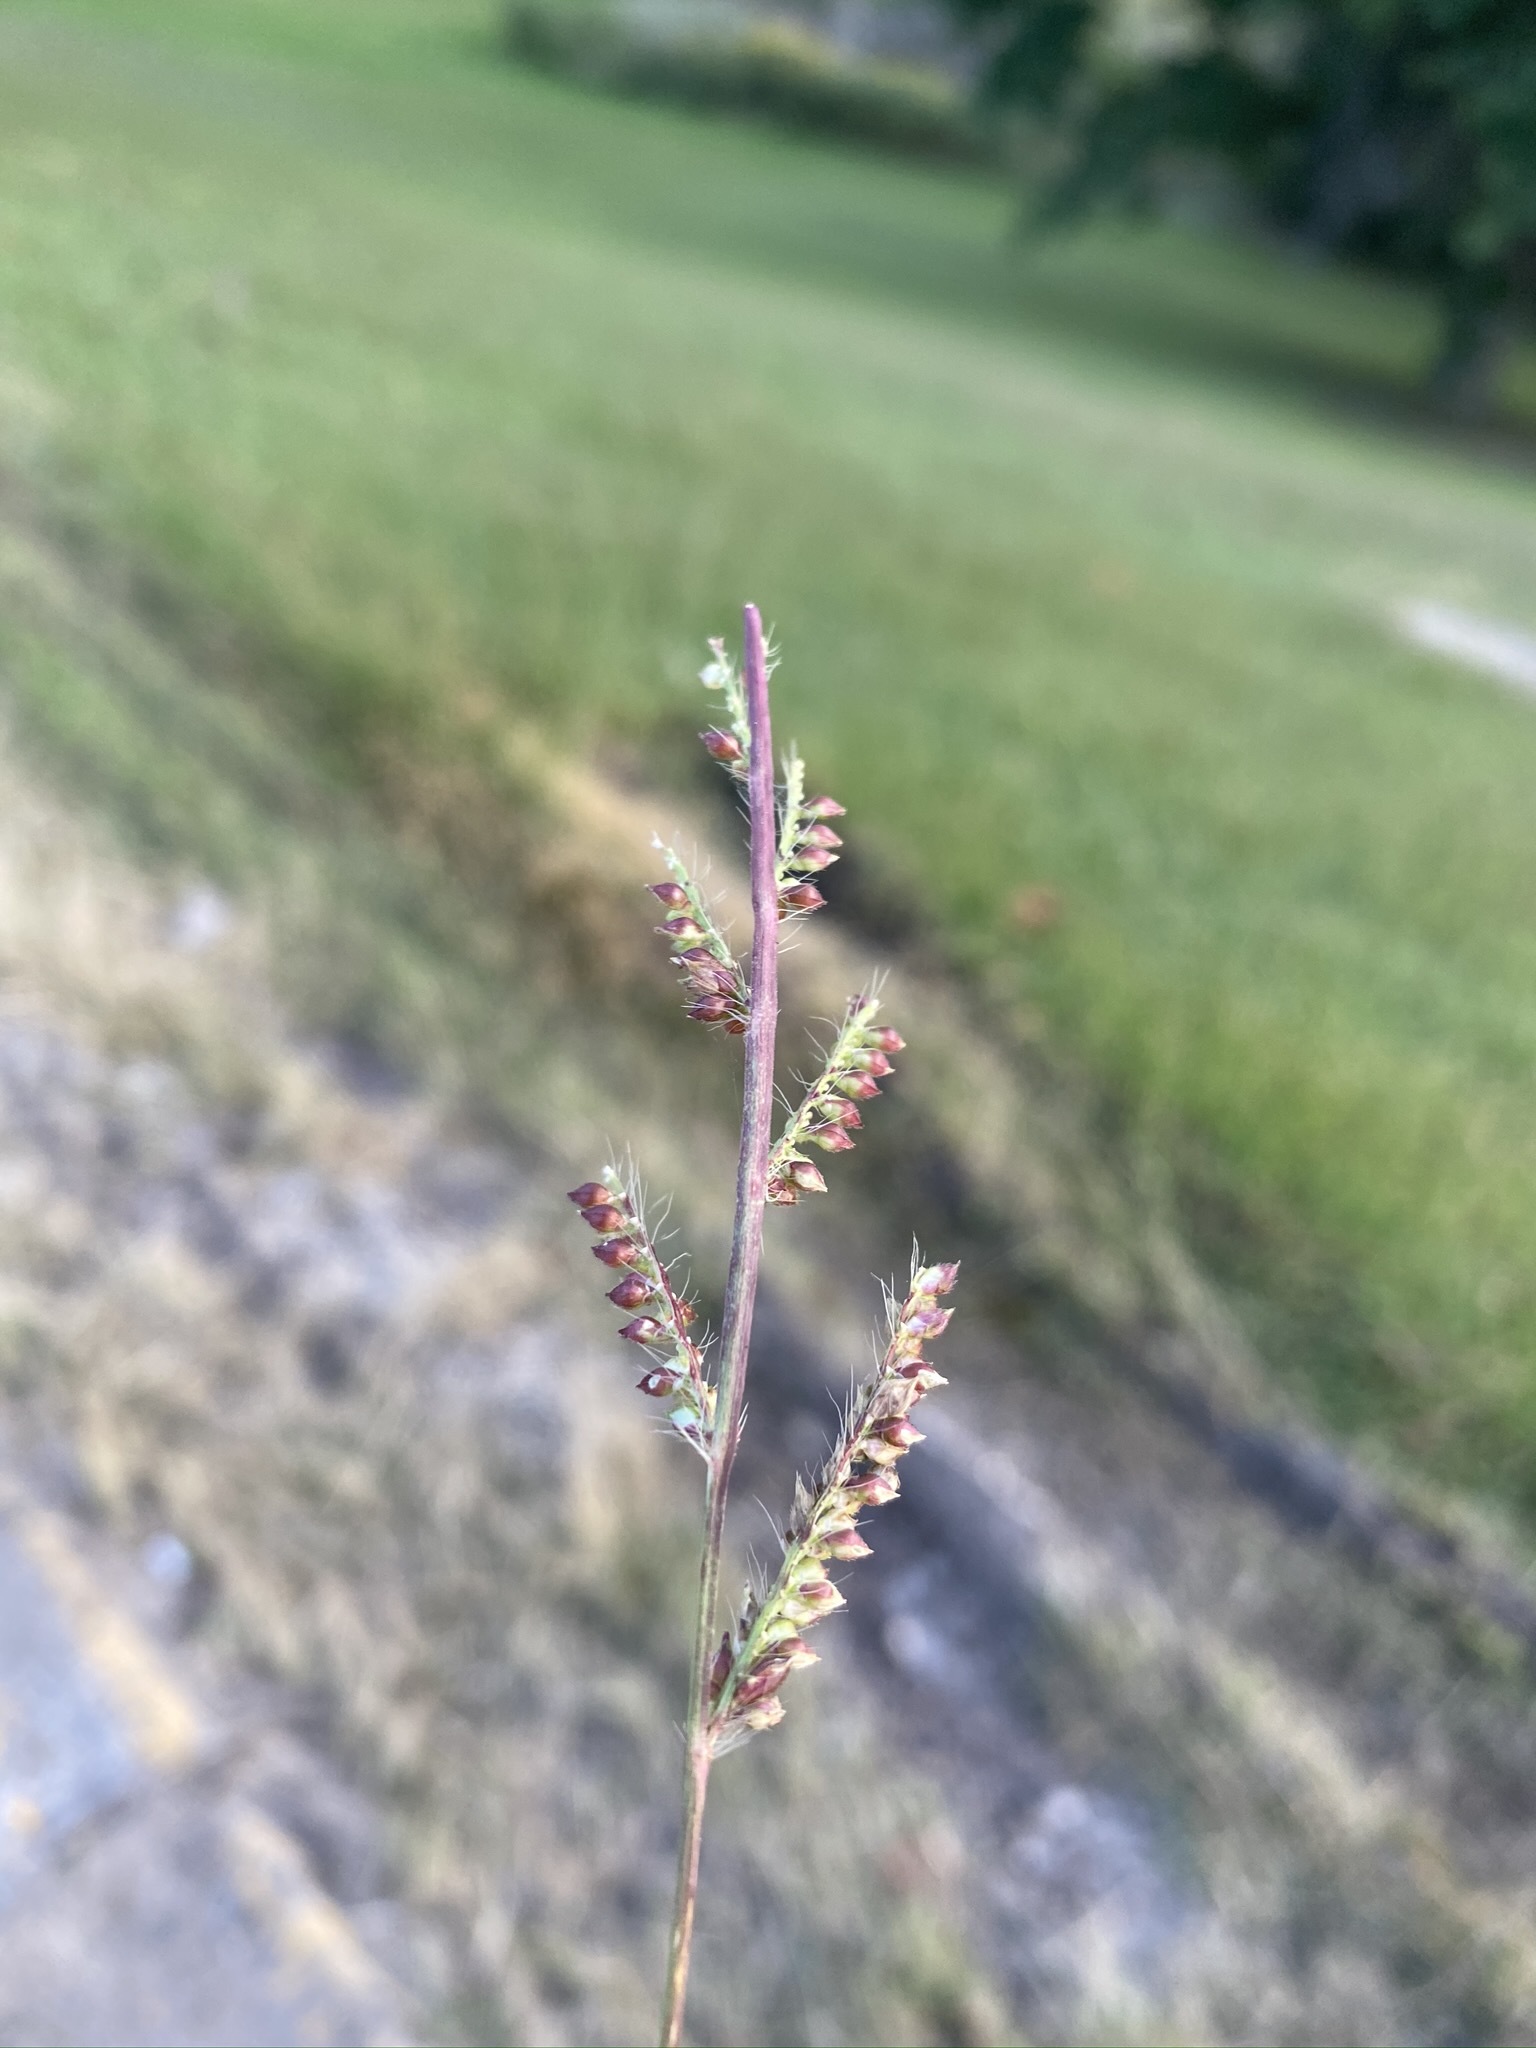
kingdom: Plantae
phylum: Tracheophyta
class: Liliopsida
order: Poales
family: Poaceae
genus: Echinochloa
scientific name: Echinochloa
